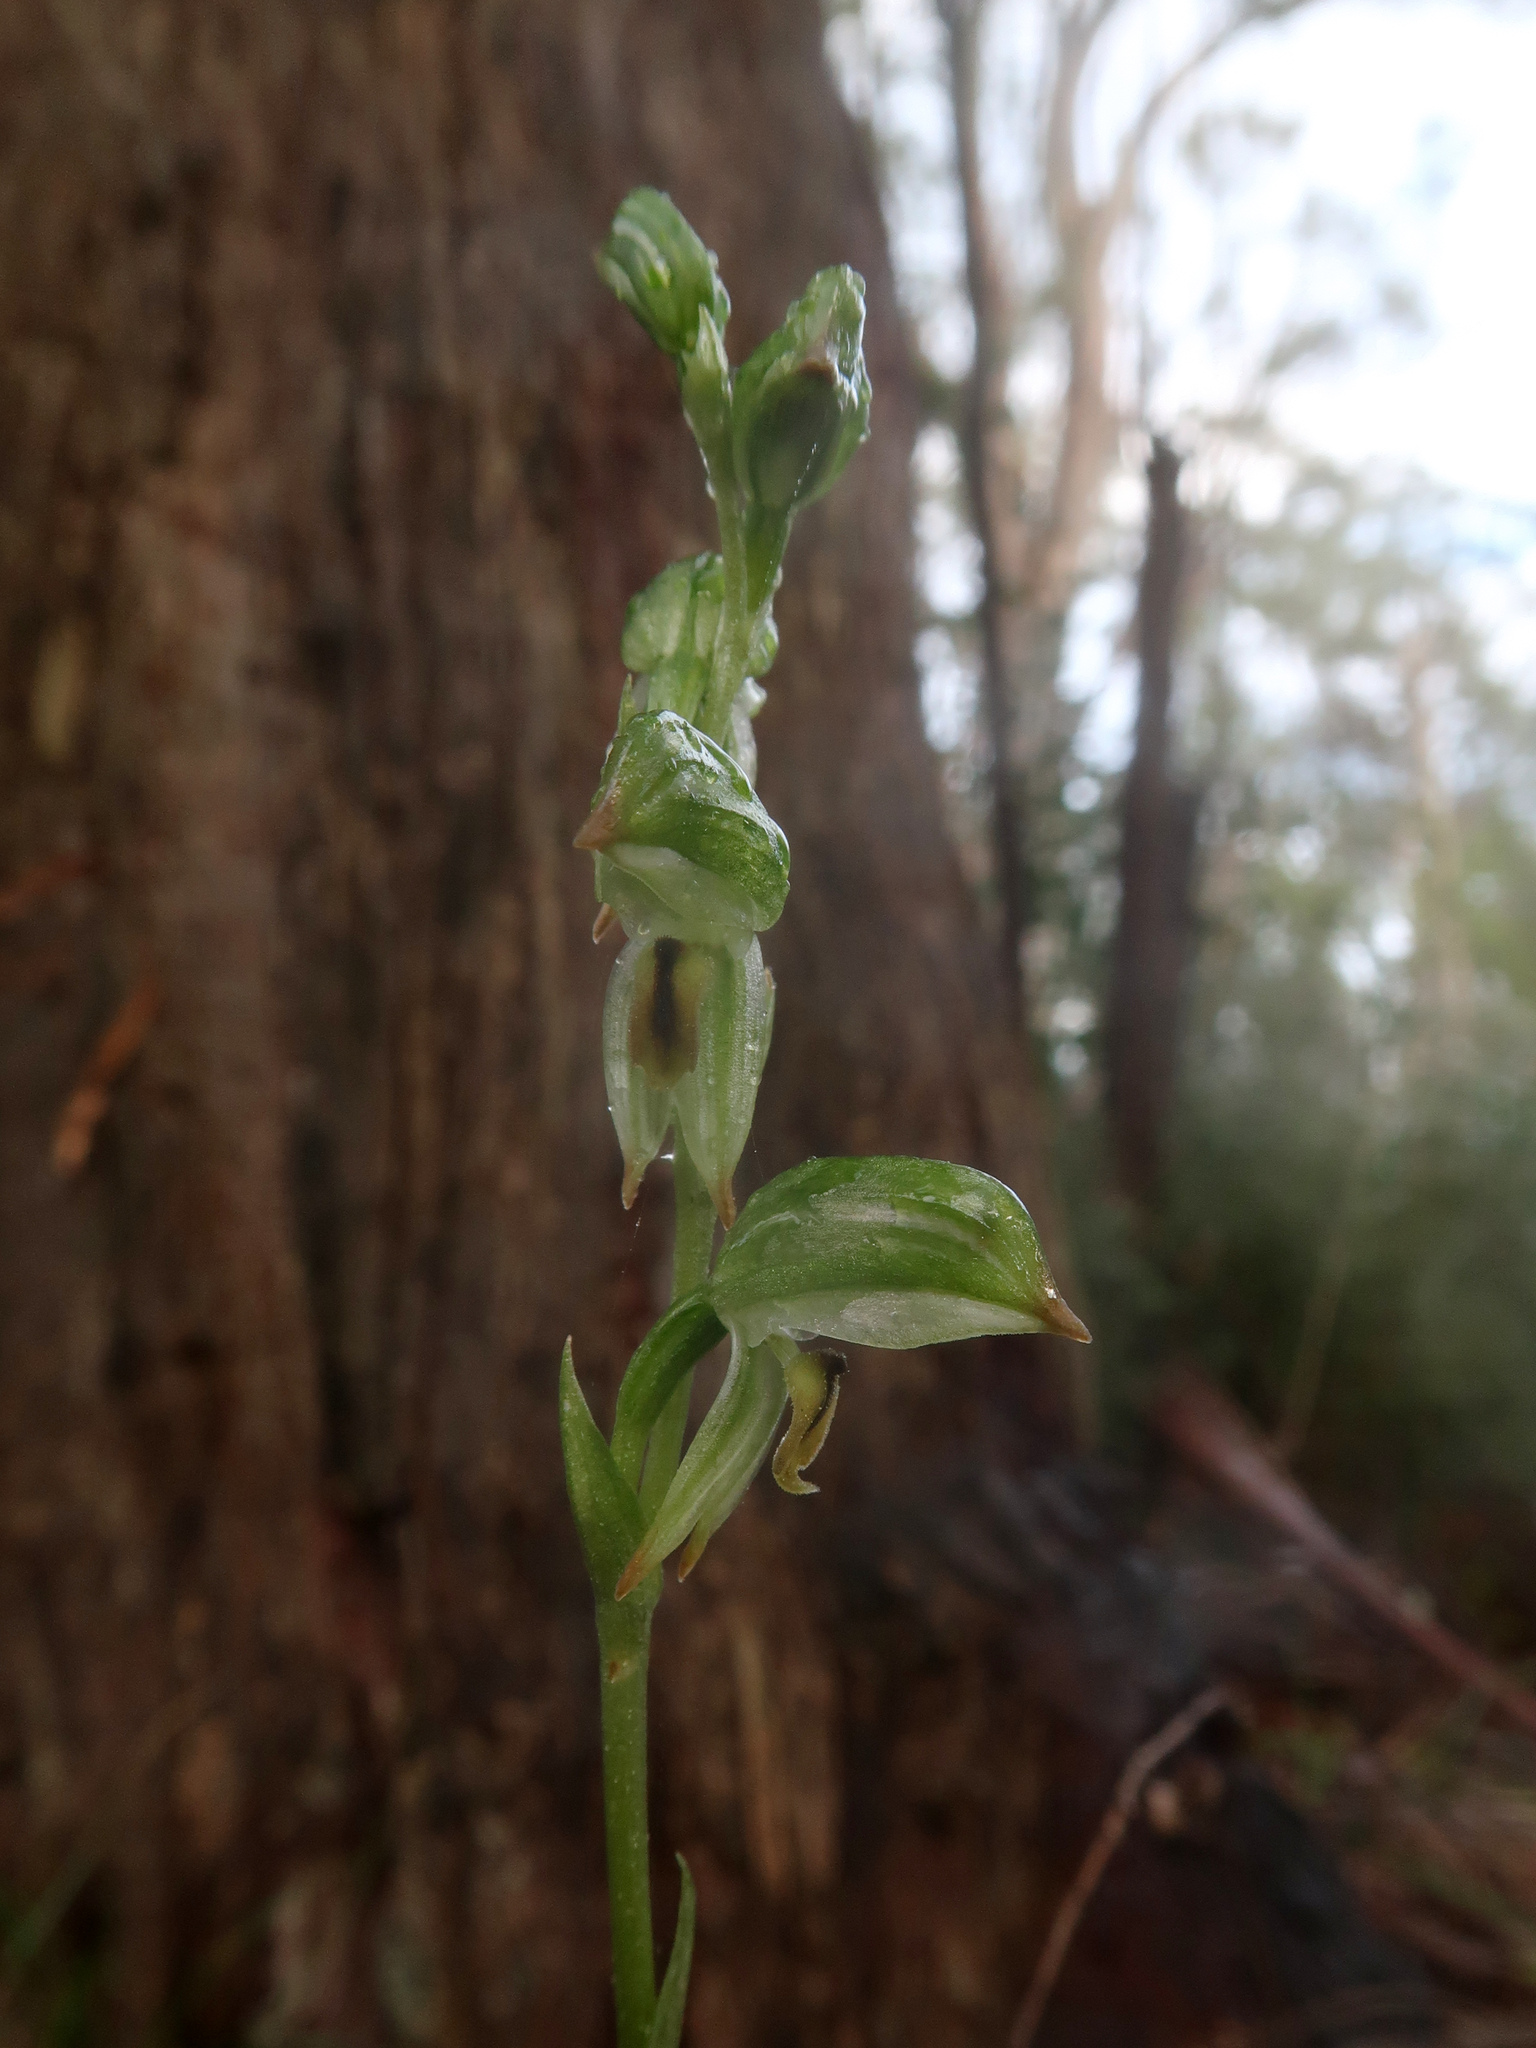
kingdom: Plantae
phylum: Tracheophyta
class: Liliopsida
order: Asparagales
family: Orchidaceae
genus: Pterostylis
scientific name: Pterostylis melagramma
